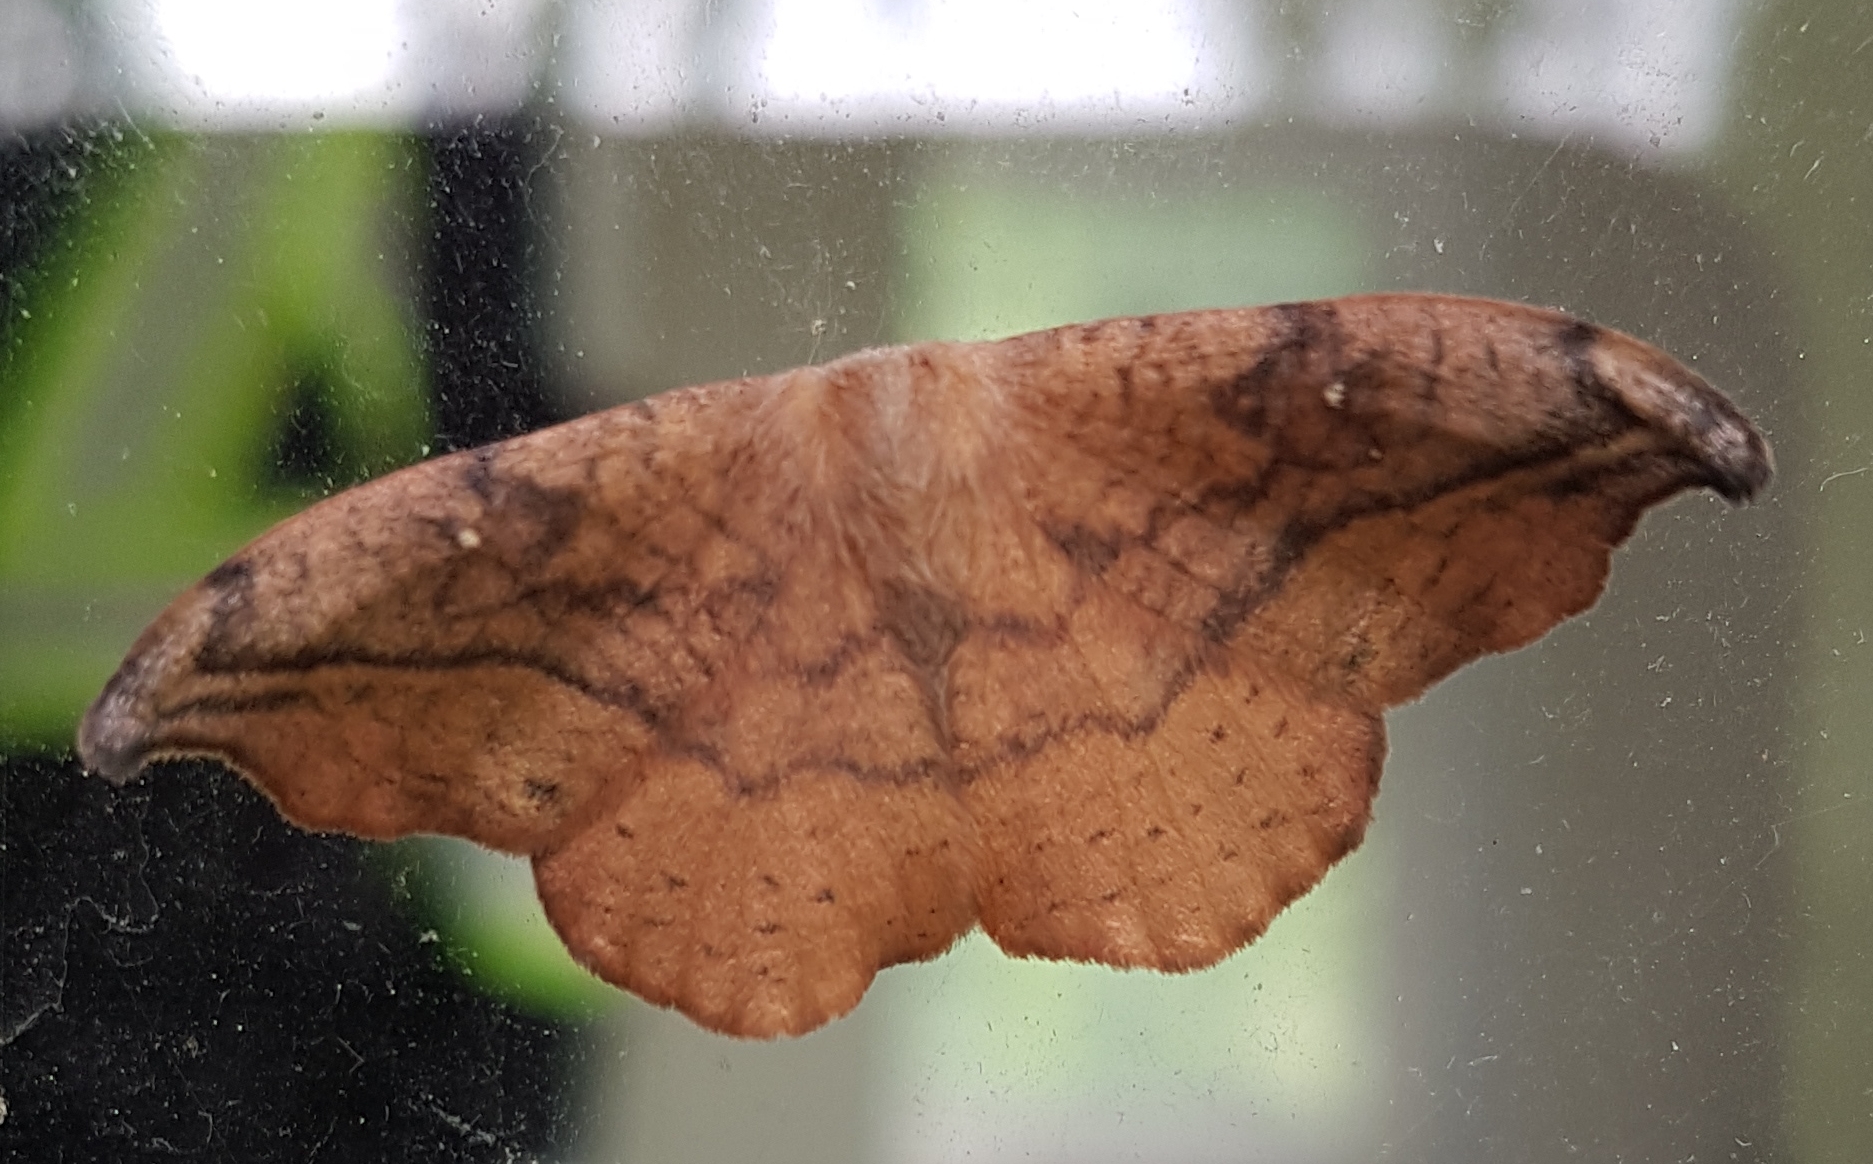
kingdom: Animalia
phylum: Arthropoda
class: Insecta
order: Lepidoptera
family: Drepanidae
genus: Oreta
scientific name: Oreta rosea
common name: Rose hooktip
